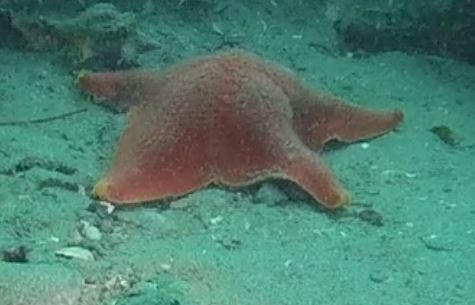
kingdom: Animalia
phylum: Echinodermata
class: Asteroidea
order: Valvatida
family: Asterinidae
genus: Patiria
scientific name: Patiria miniata
